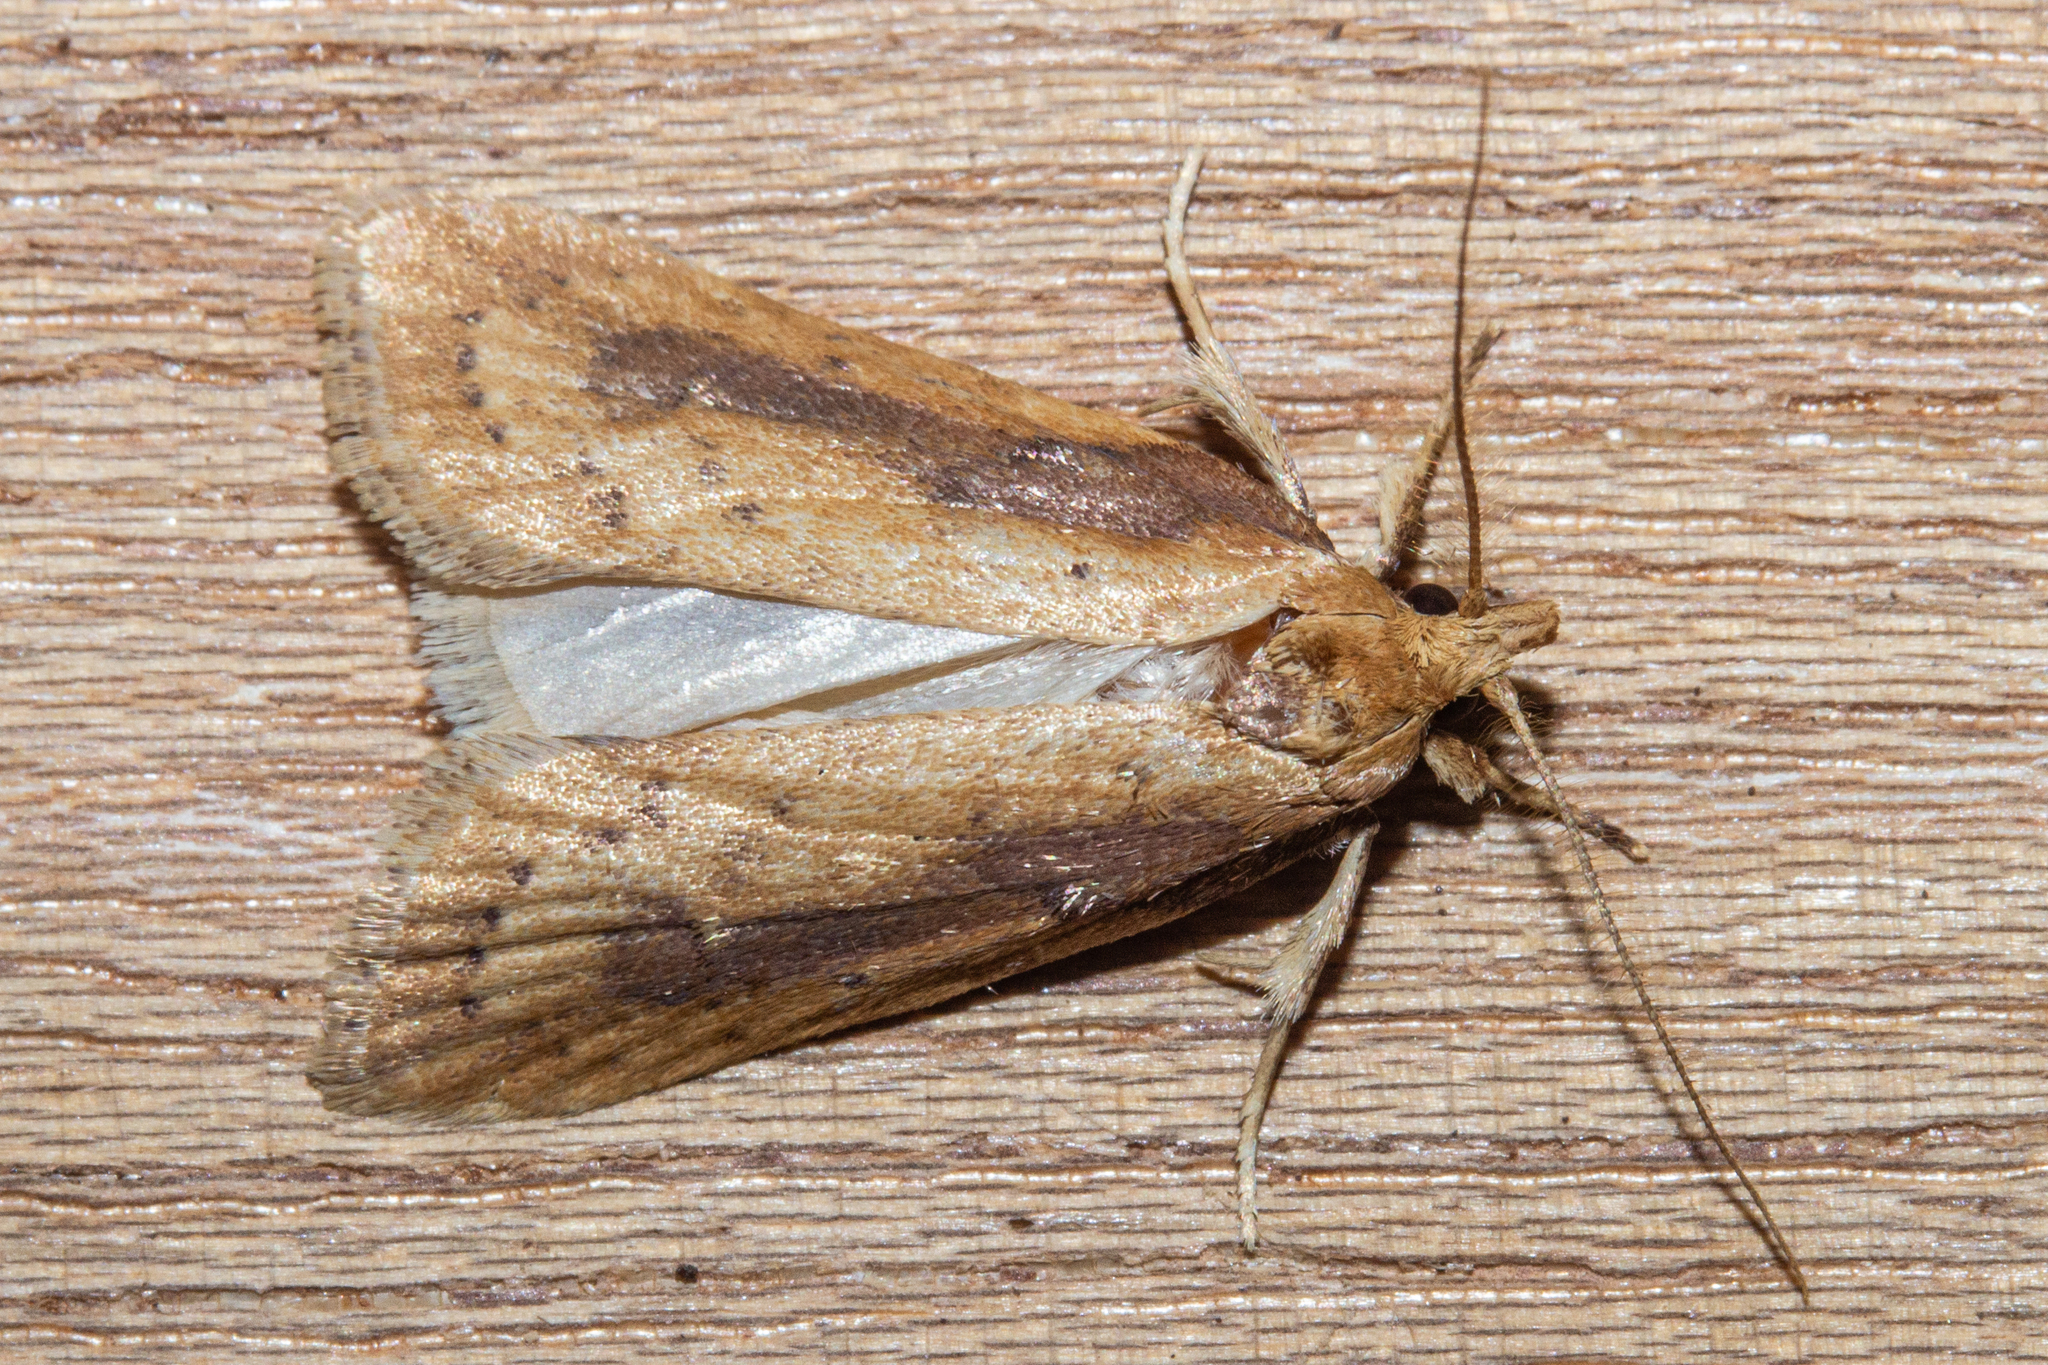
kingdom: Animalia
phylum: Arthropoda
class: Insecta
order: Lepidoptera
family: Depressariidae
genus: Agriophara
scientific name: Agriophara
